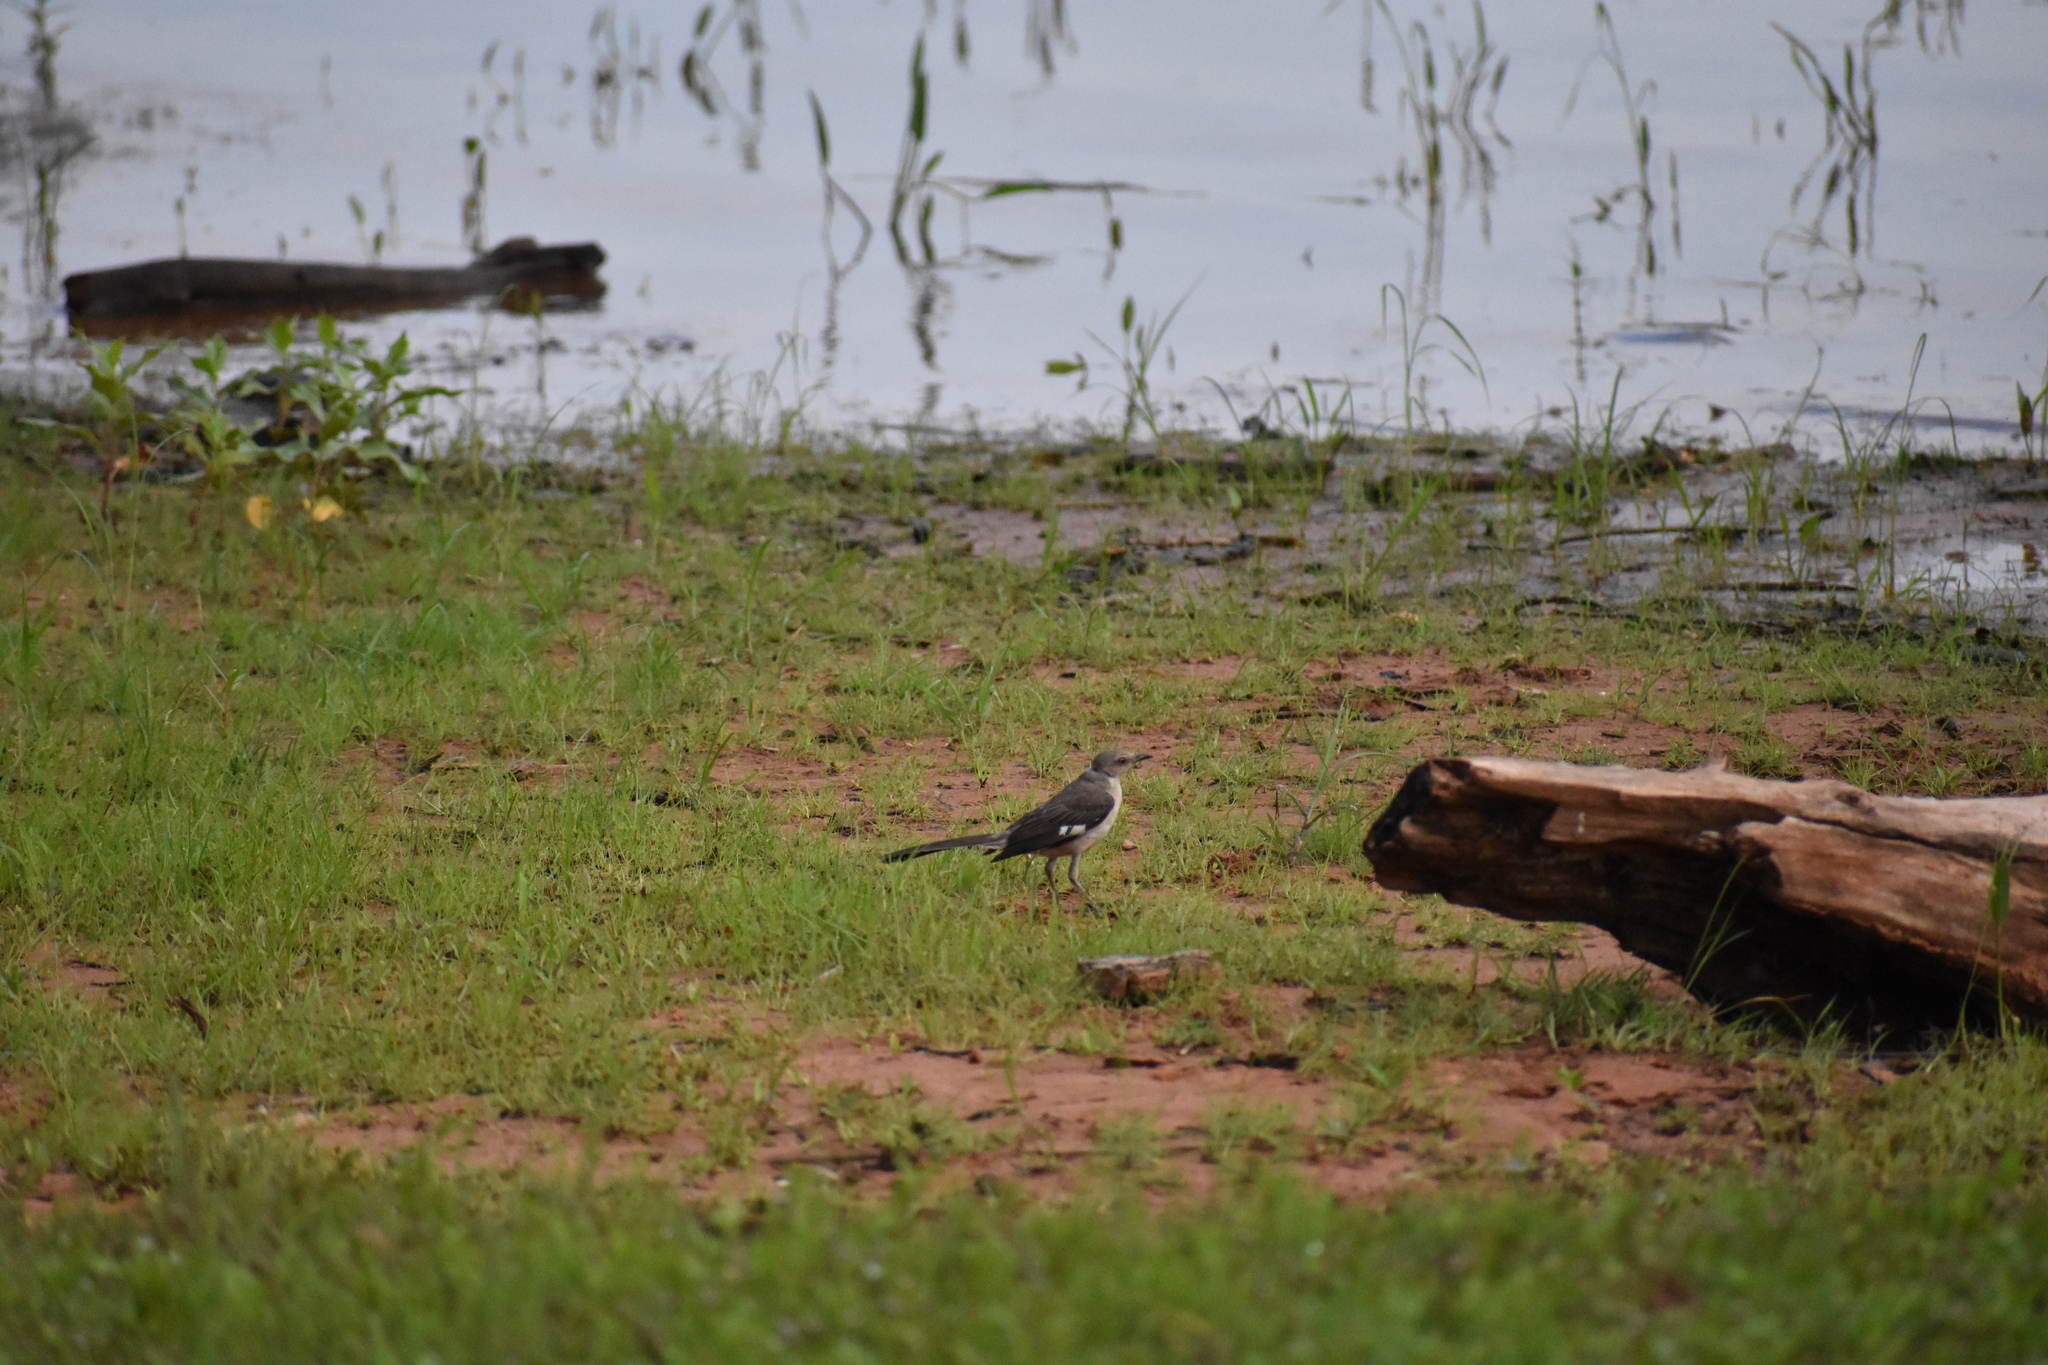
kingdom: Animalia
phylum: Chordata
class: Aves
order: Passeriformes
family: Mimidae
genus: Mimus
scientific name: Mimus polyglottos
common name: Northern mockingbird
